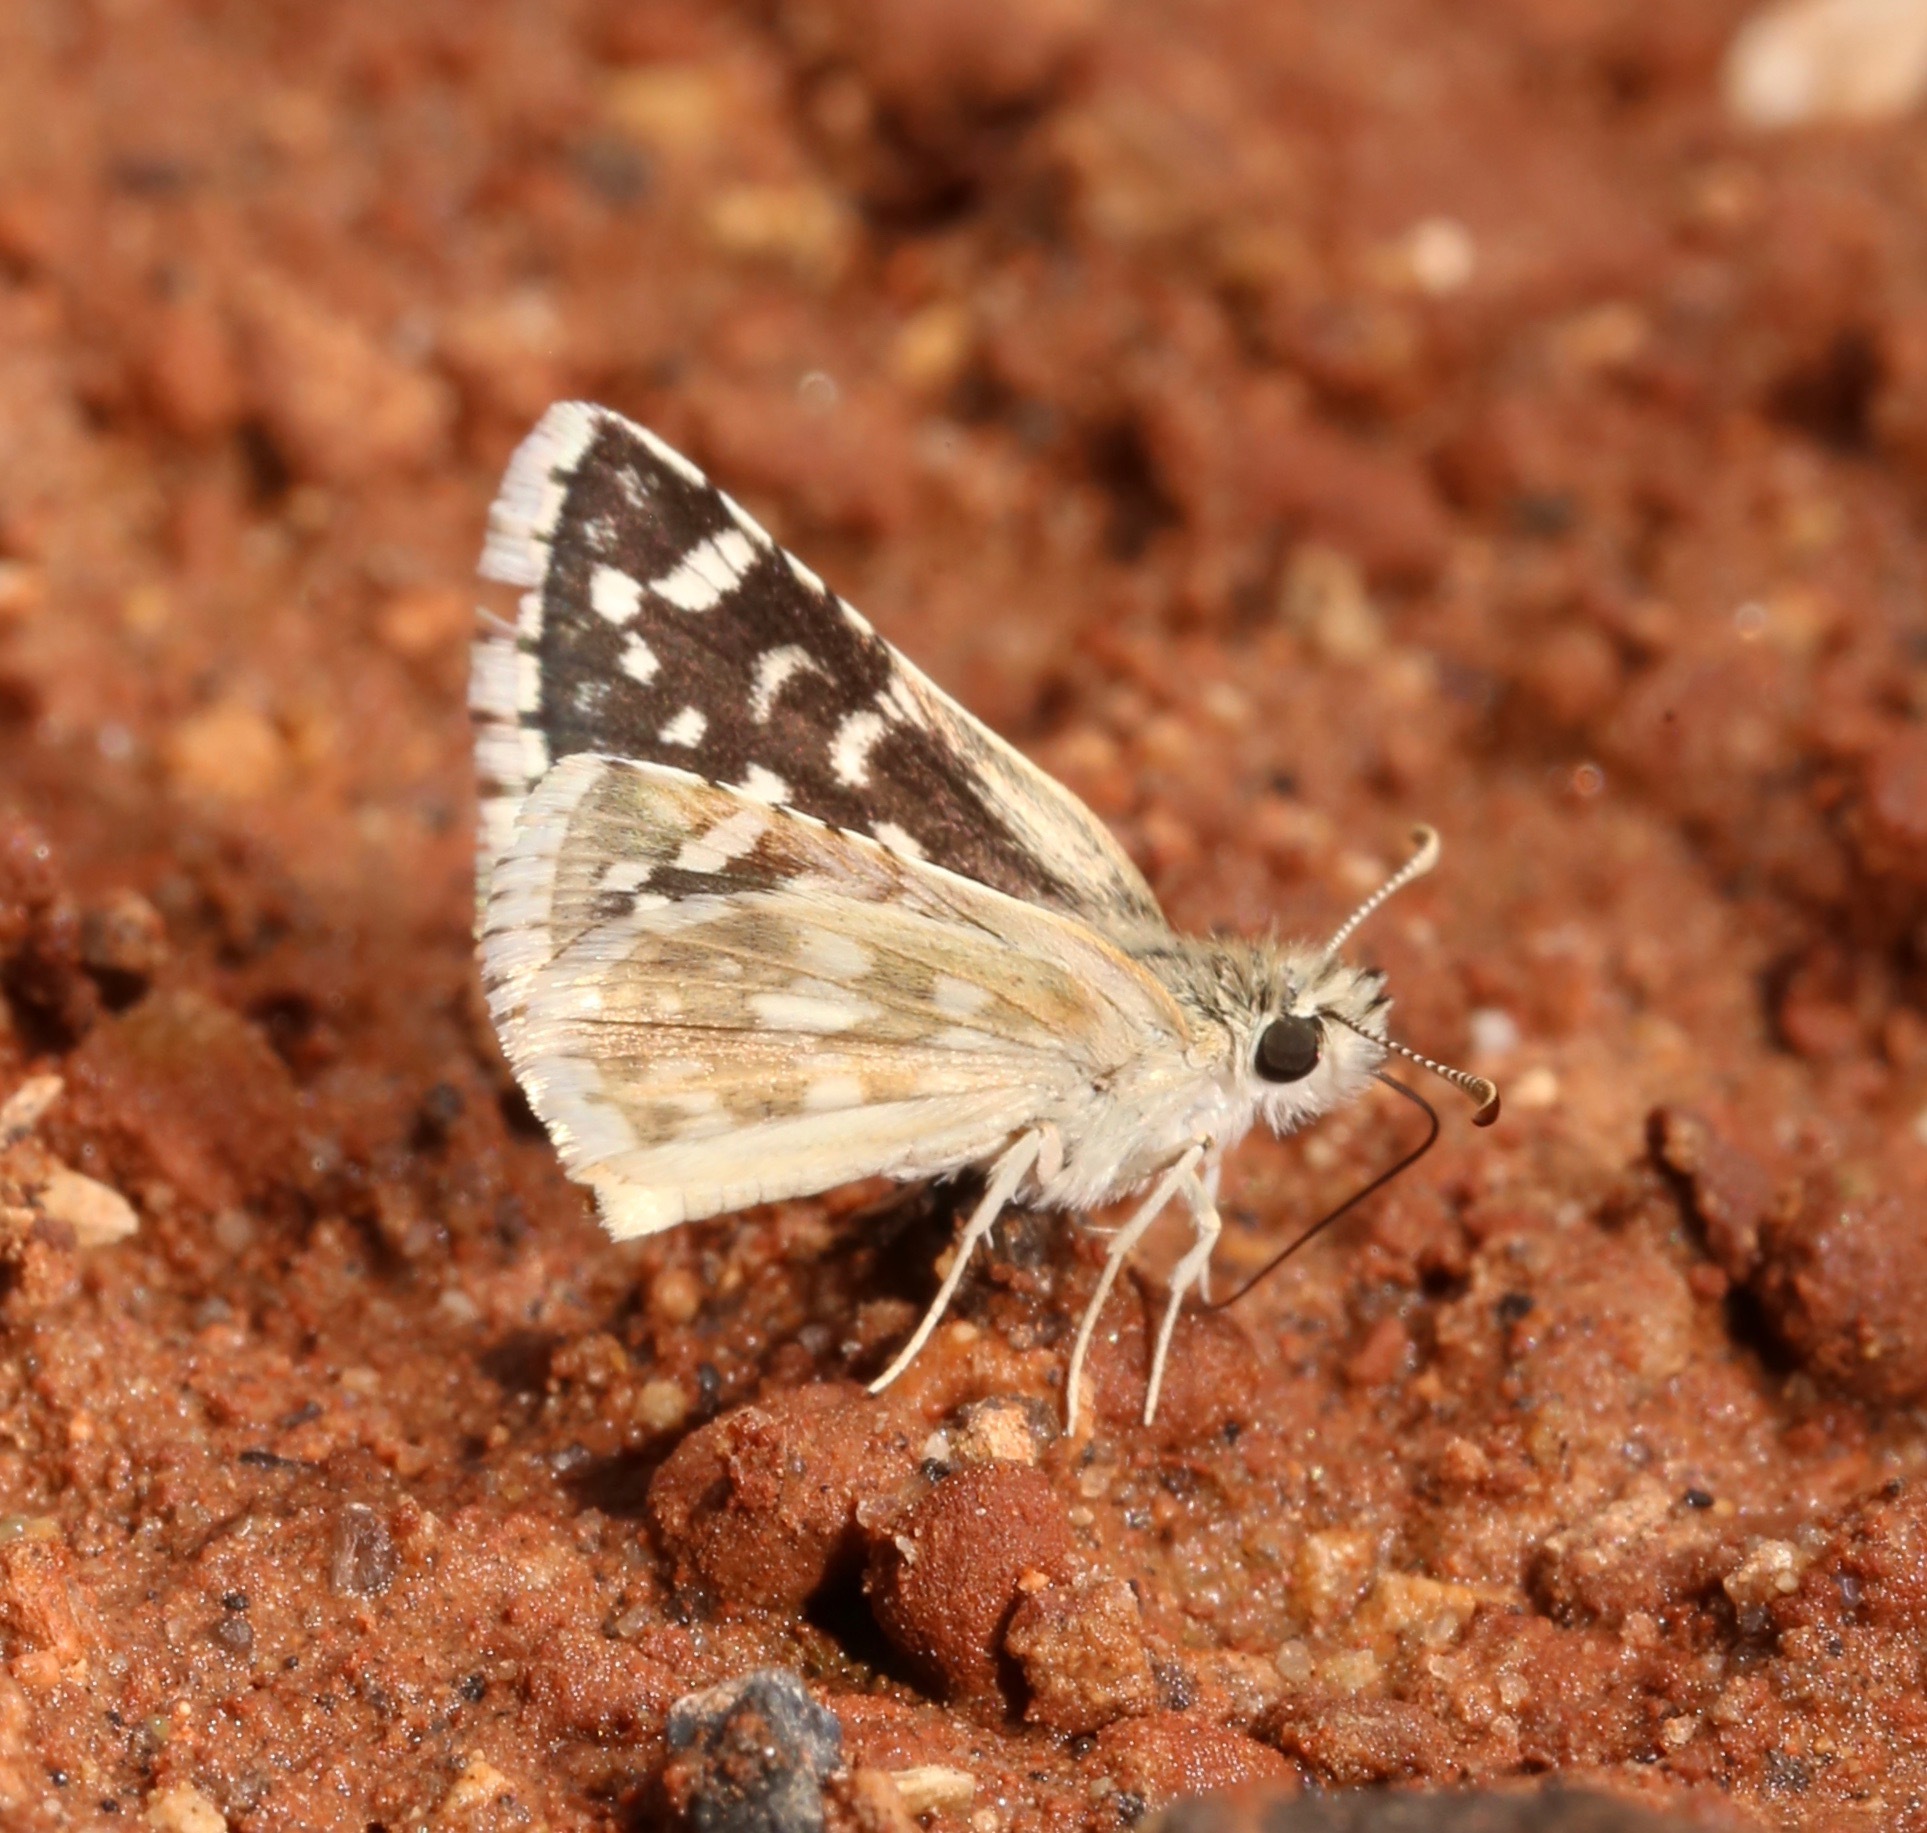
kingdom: Animalia
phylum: Arthropoda
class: Insecta
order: Lepidoptera
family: Hesperiidae
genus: Pyrgus
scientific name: Pyrgus scriptura
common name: Small checkered-skipper
